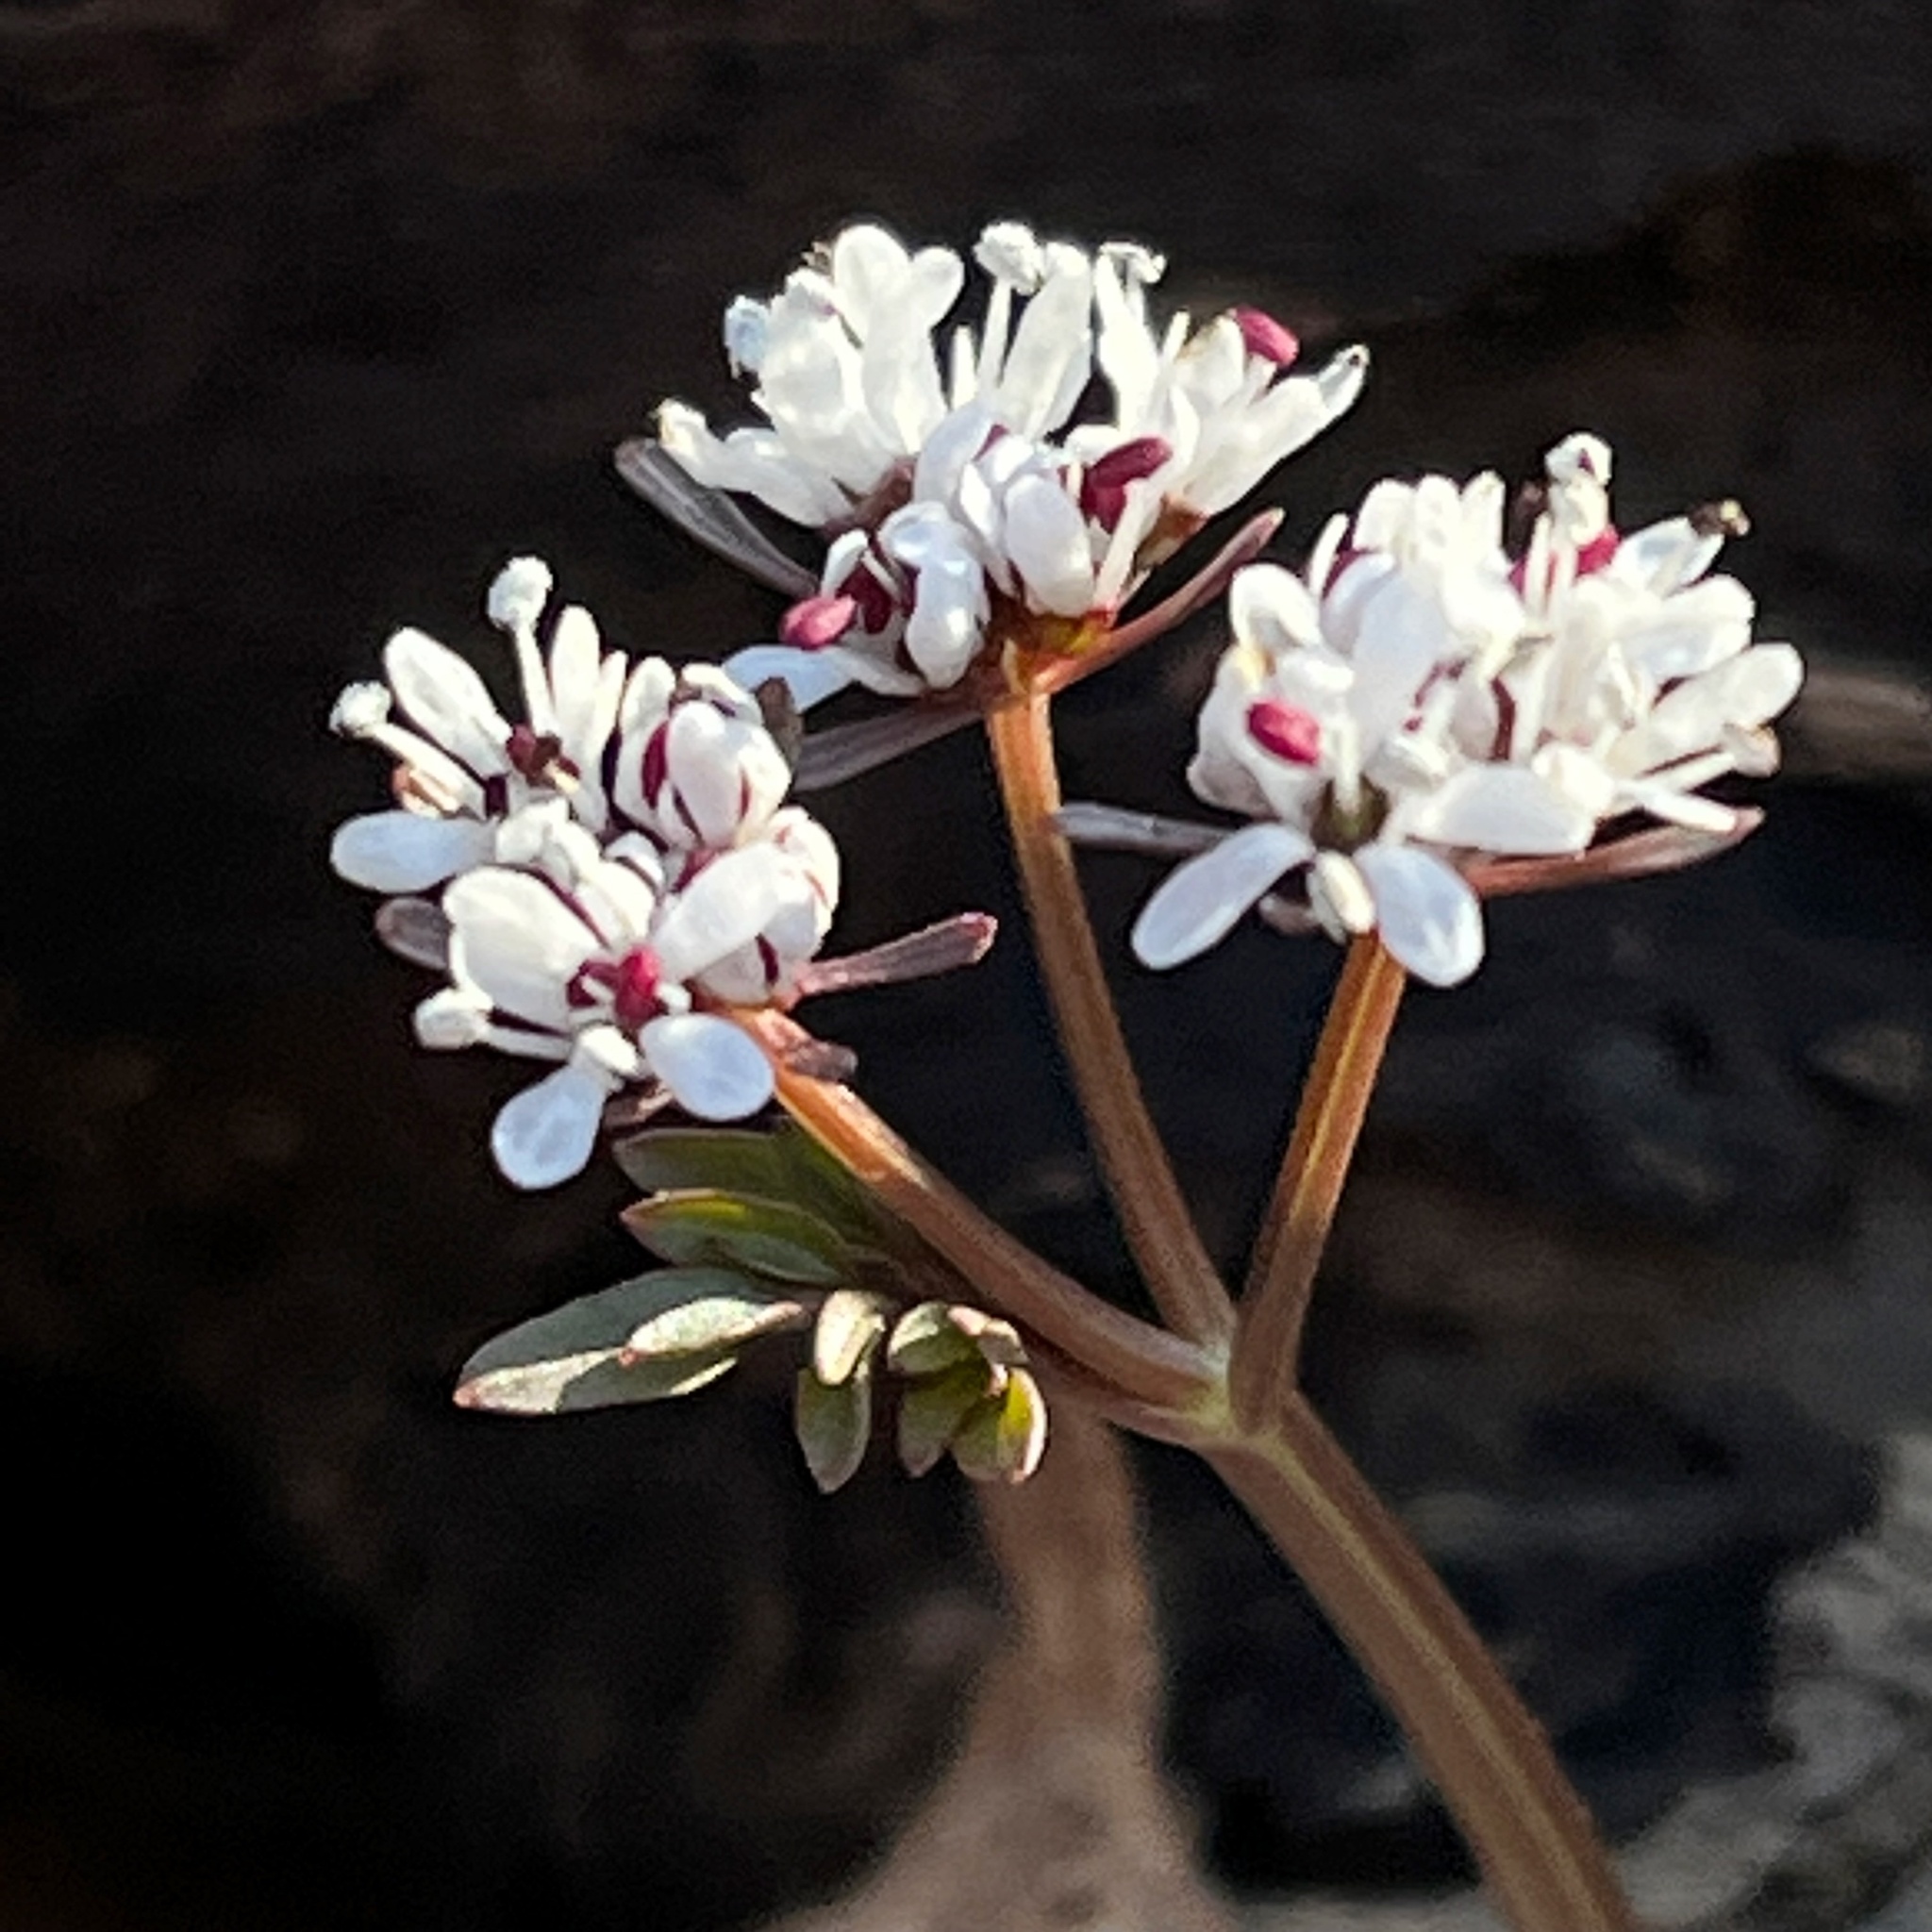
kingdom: Plantae
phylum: Tracheophyta
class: Magnoliopsida
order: Apiales
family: Apiaceae
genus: Erigenia
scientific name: Erigenia bulbosa
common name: Pepper-and-salt
